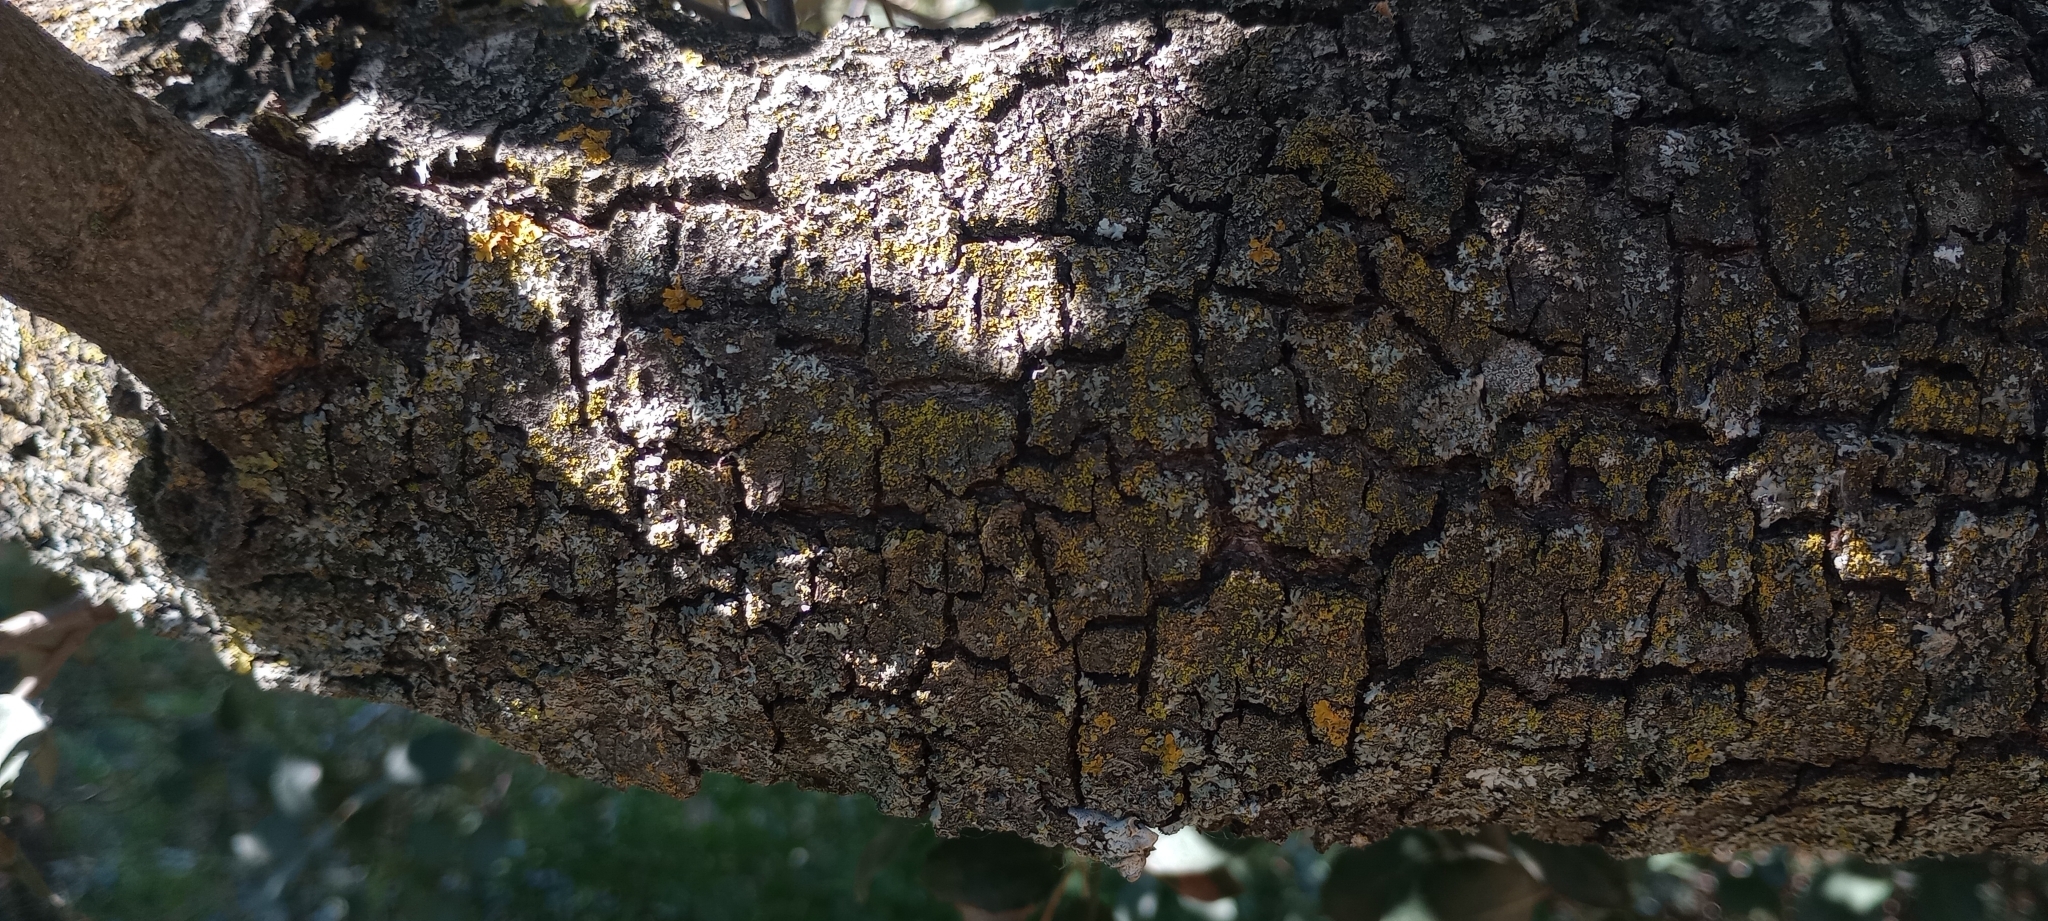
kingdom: Plantae
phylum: Tracheophyta
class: Magnoliopsida
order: Fagales
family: Fagaceae
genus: Quercus
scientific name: Quercus rotundifolia
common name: Holm oak
